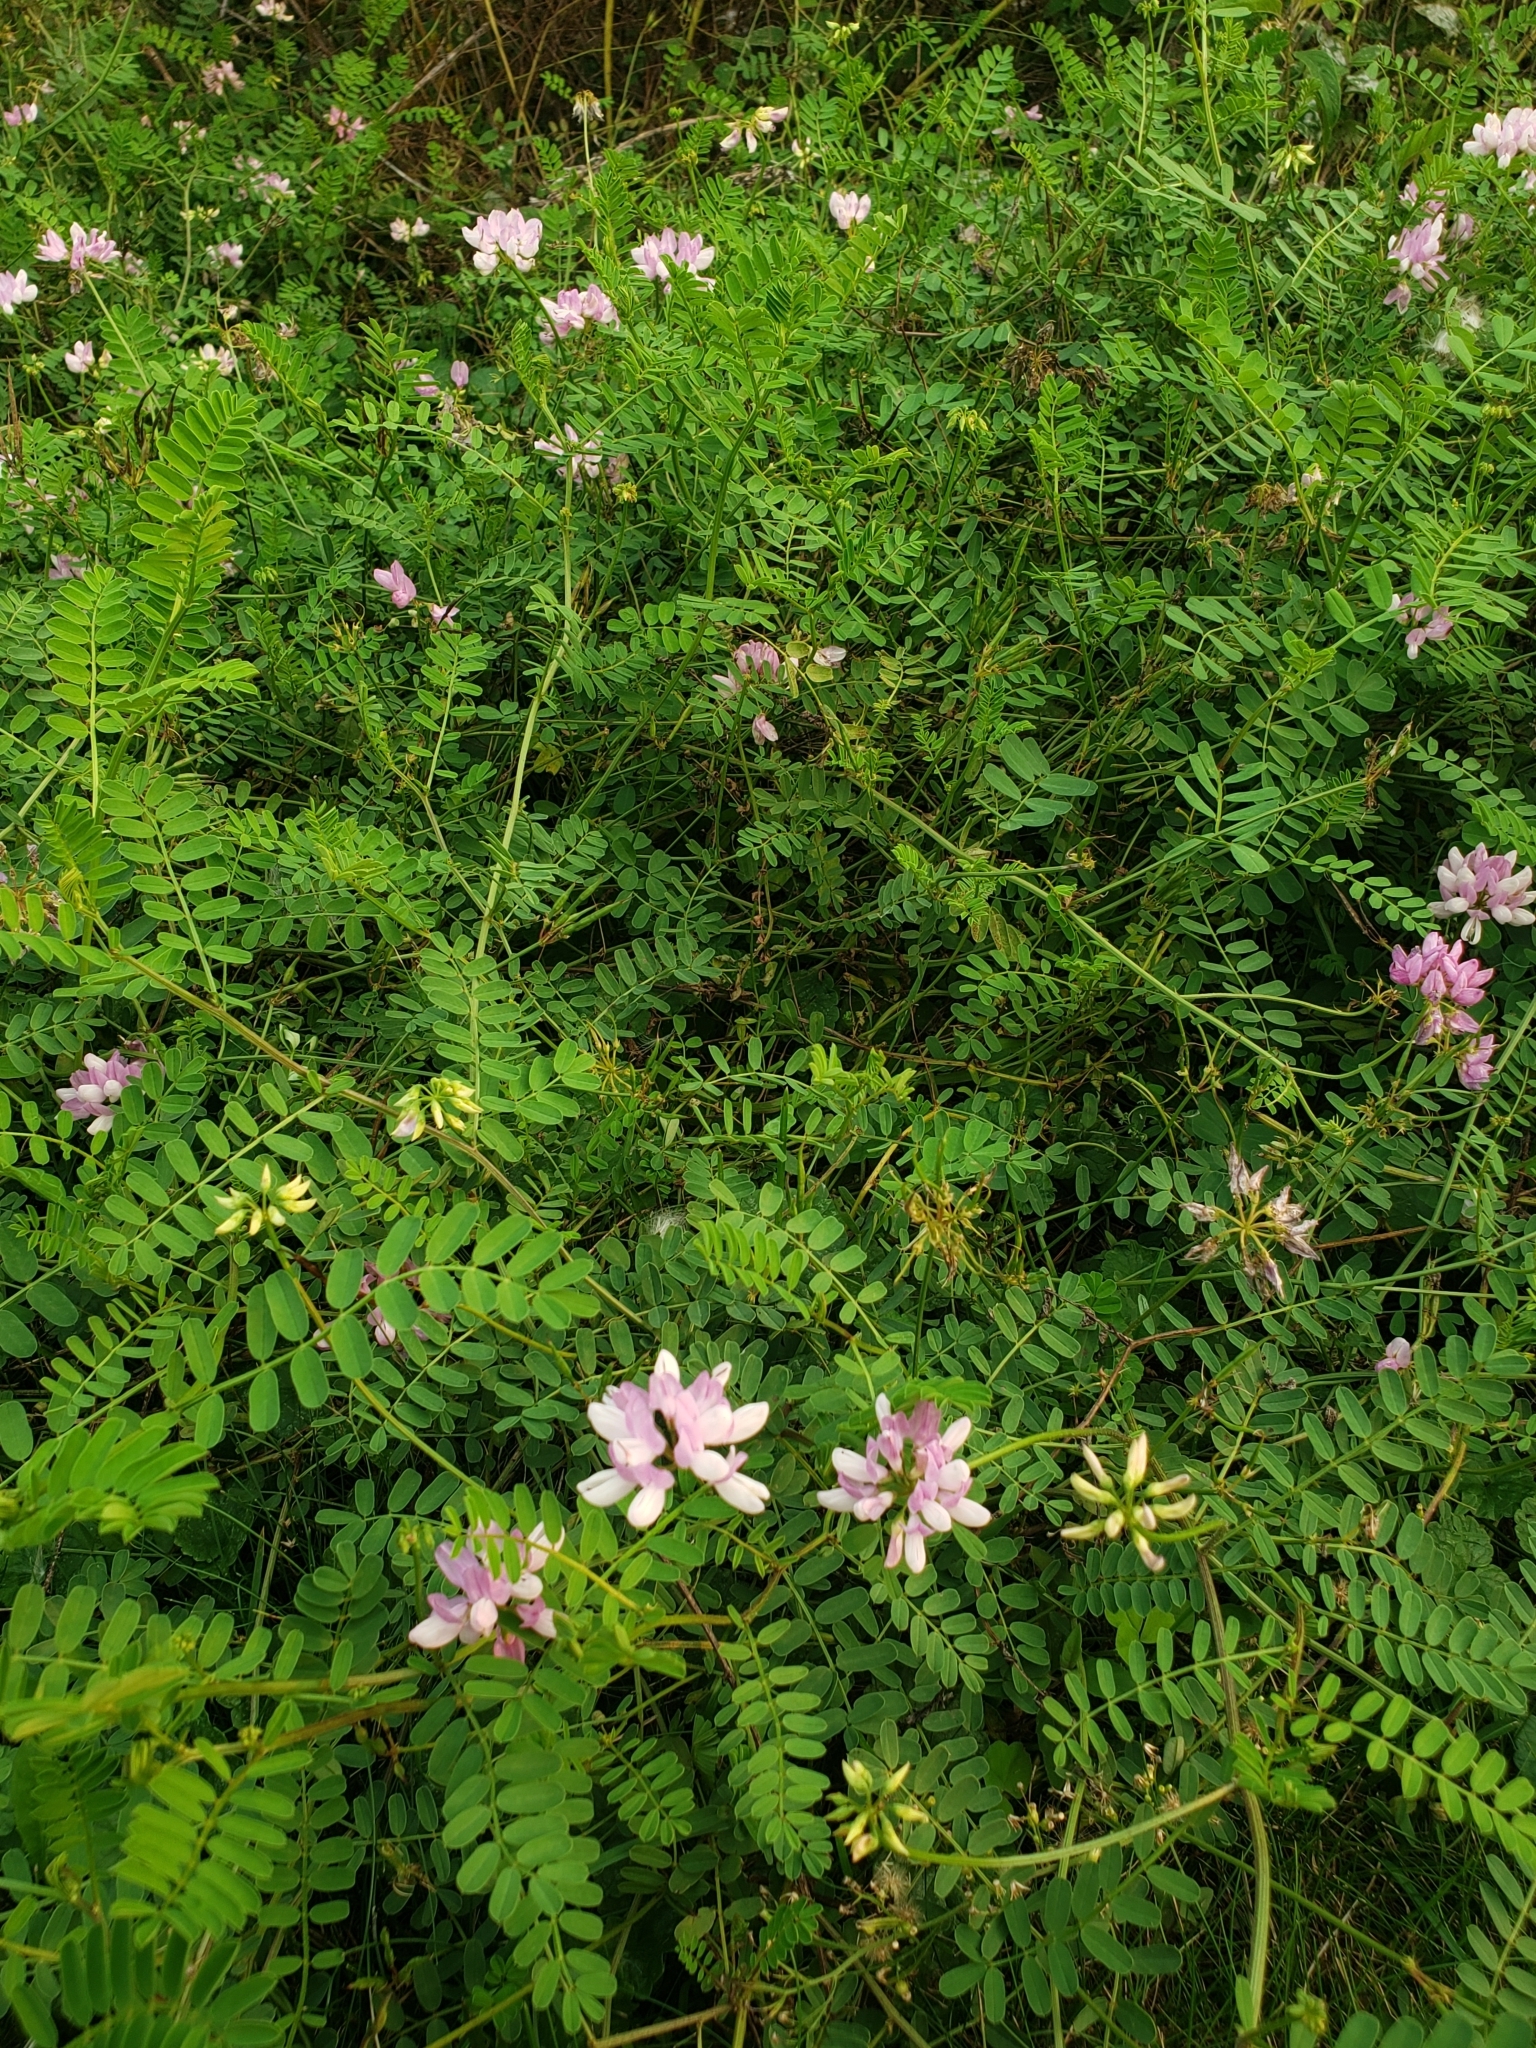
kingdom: Plantae
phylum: Tracheophyta
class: Magnoliopsida
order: Fabales
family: Fabaceae
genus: Coronilla
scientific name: Coronilla varia
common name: Crownvetch
